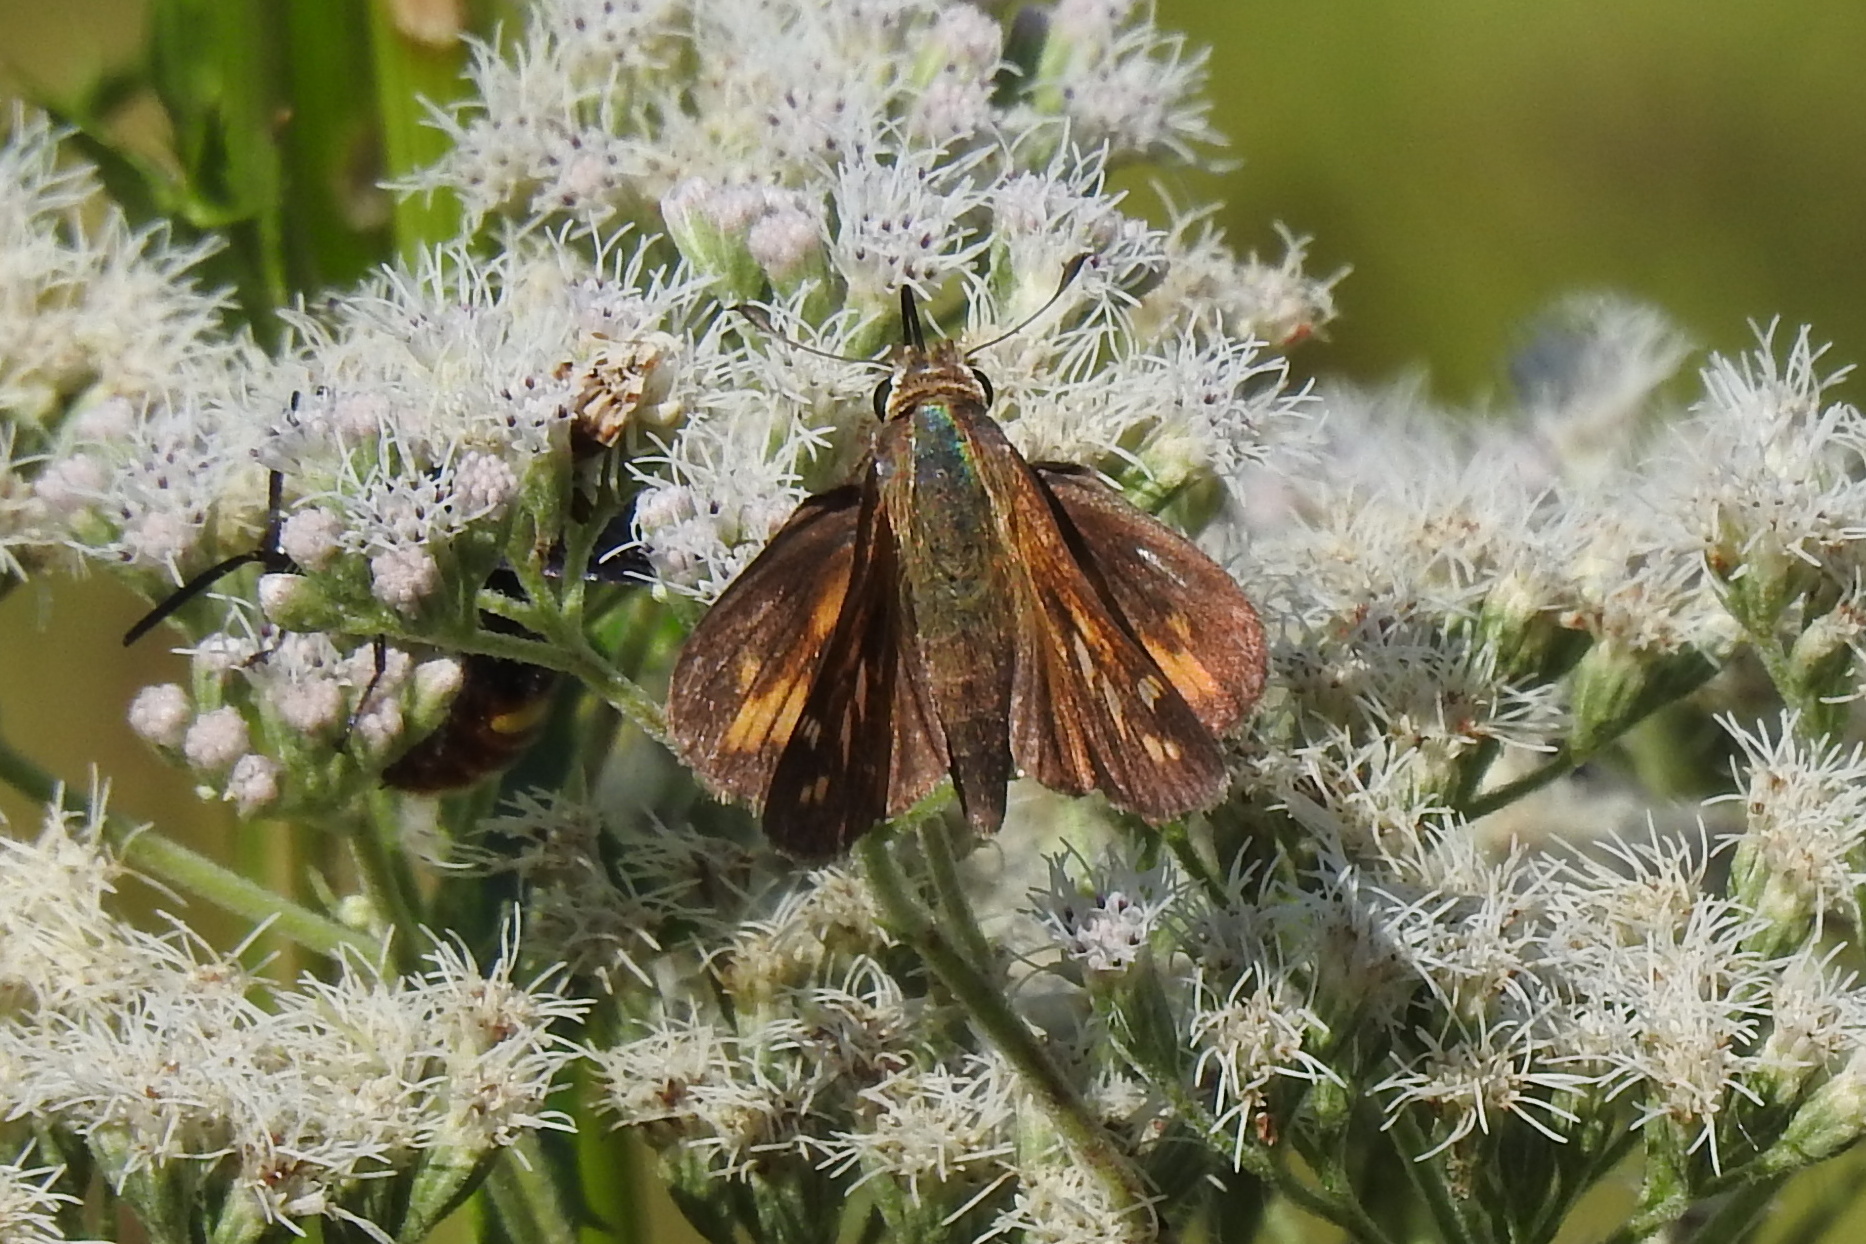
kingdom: Animalia
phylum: Arthropoda
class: Insecta
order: Lepidoptera
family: Hesperiidae
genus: Atalopedes
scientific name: Atalopedes
